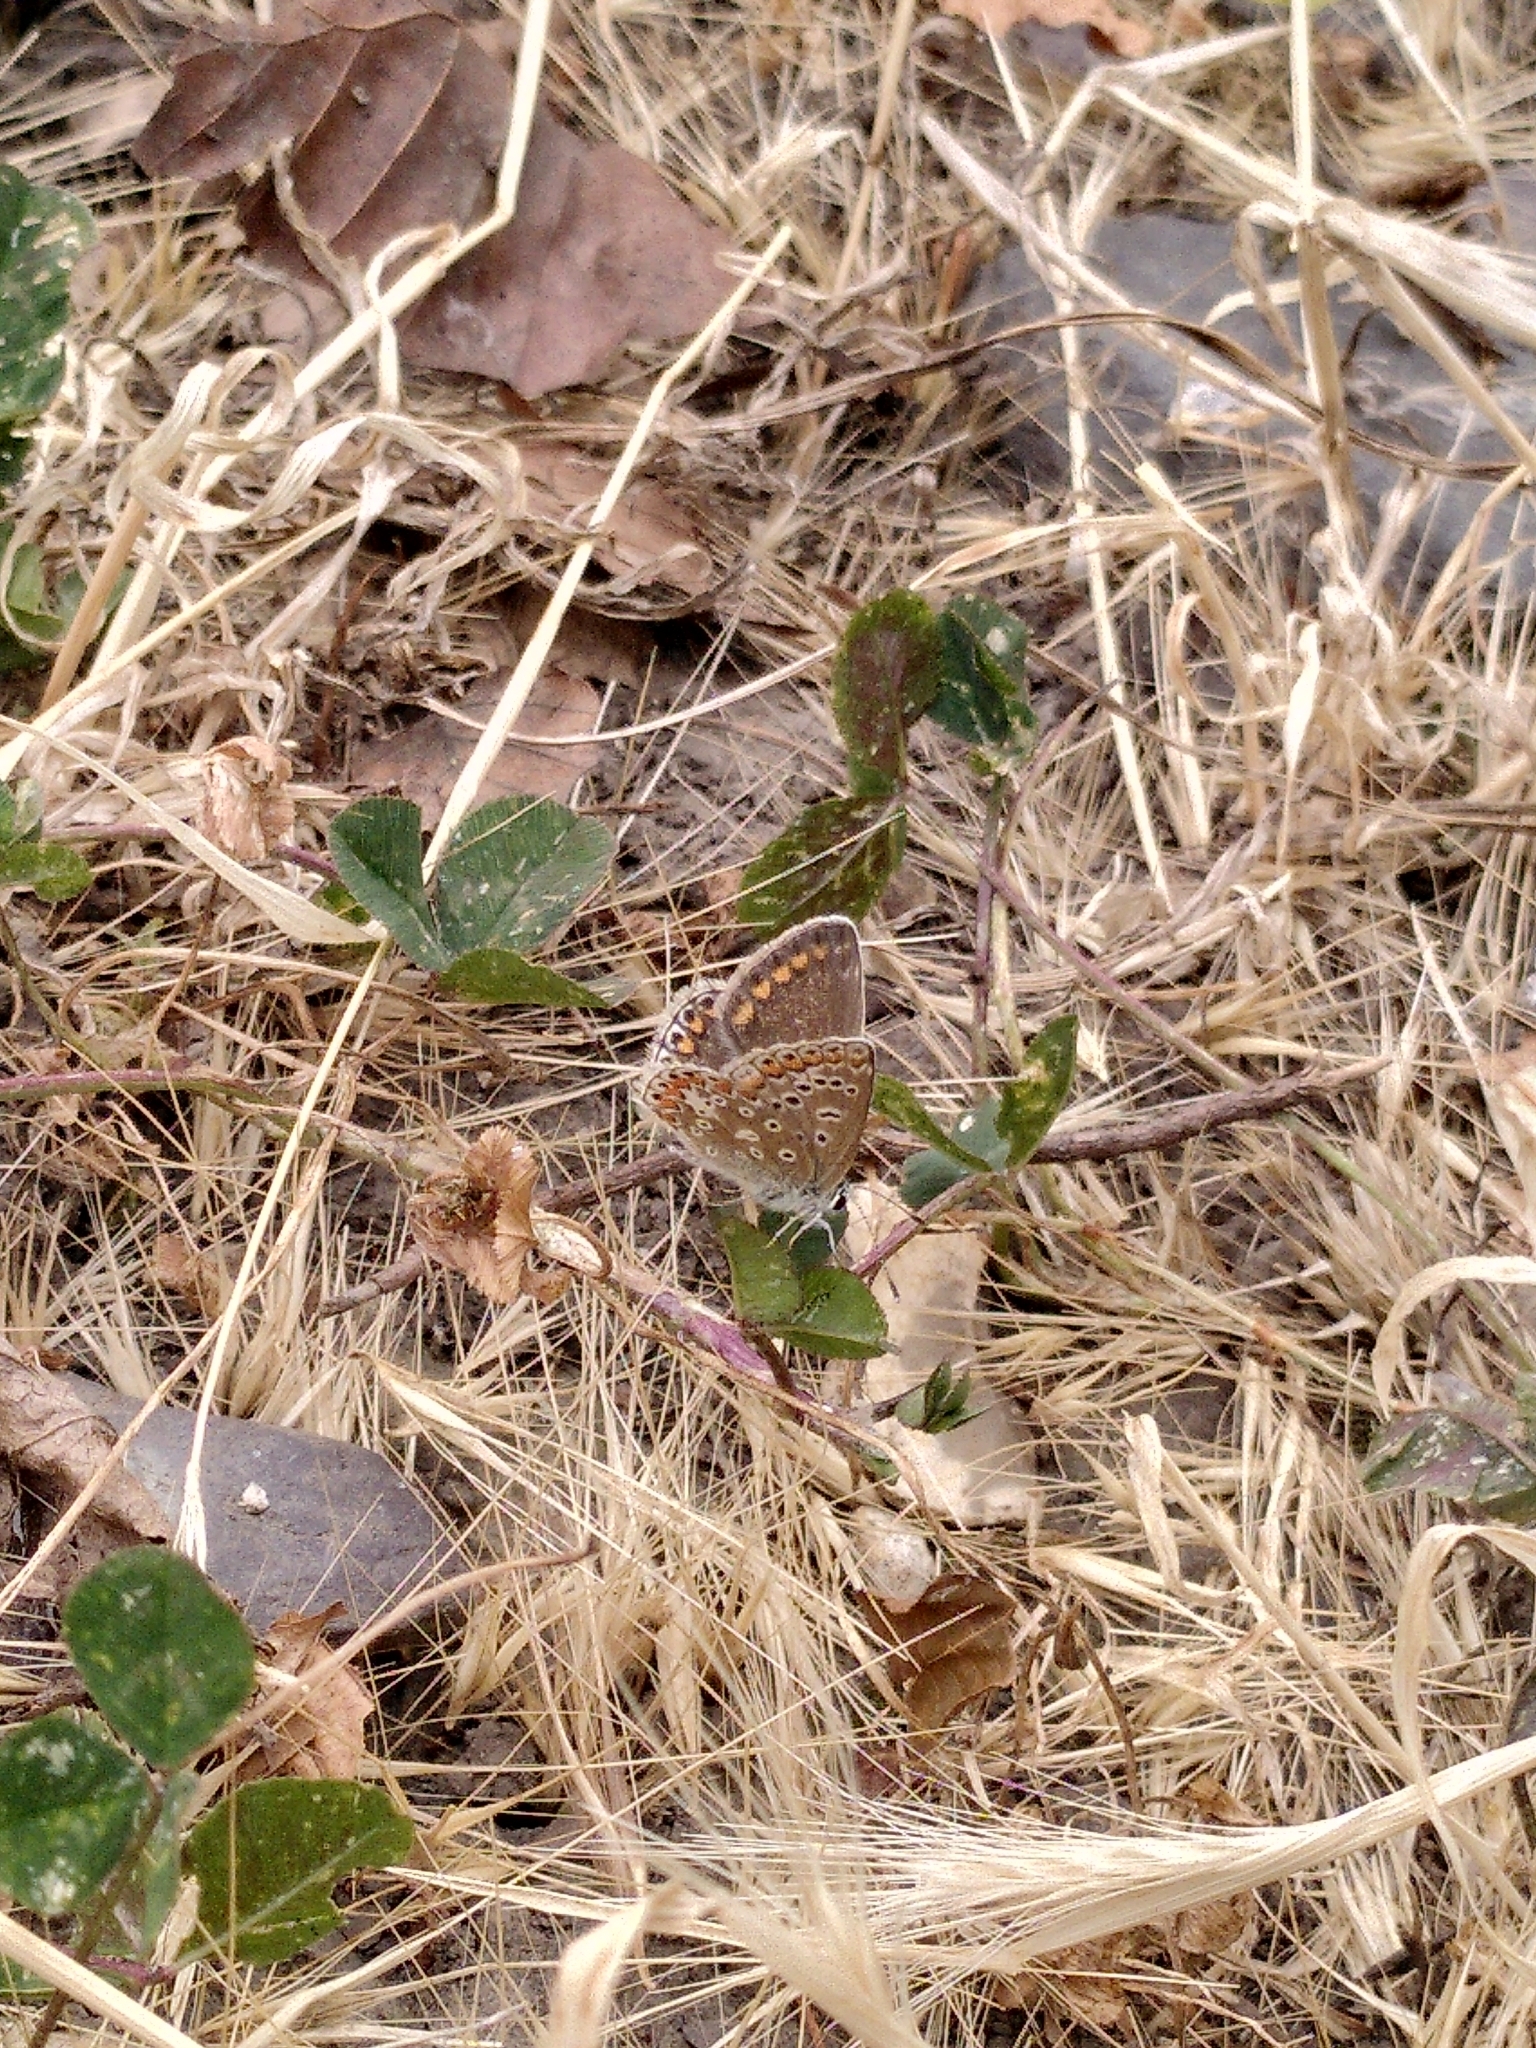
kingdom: Animalia
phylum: Arthropoda
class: Insecta
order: Lepidoptera
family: Lycaenidae
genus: Polyommatus
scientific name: Polyommatus icarus
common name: Common blue
